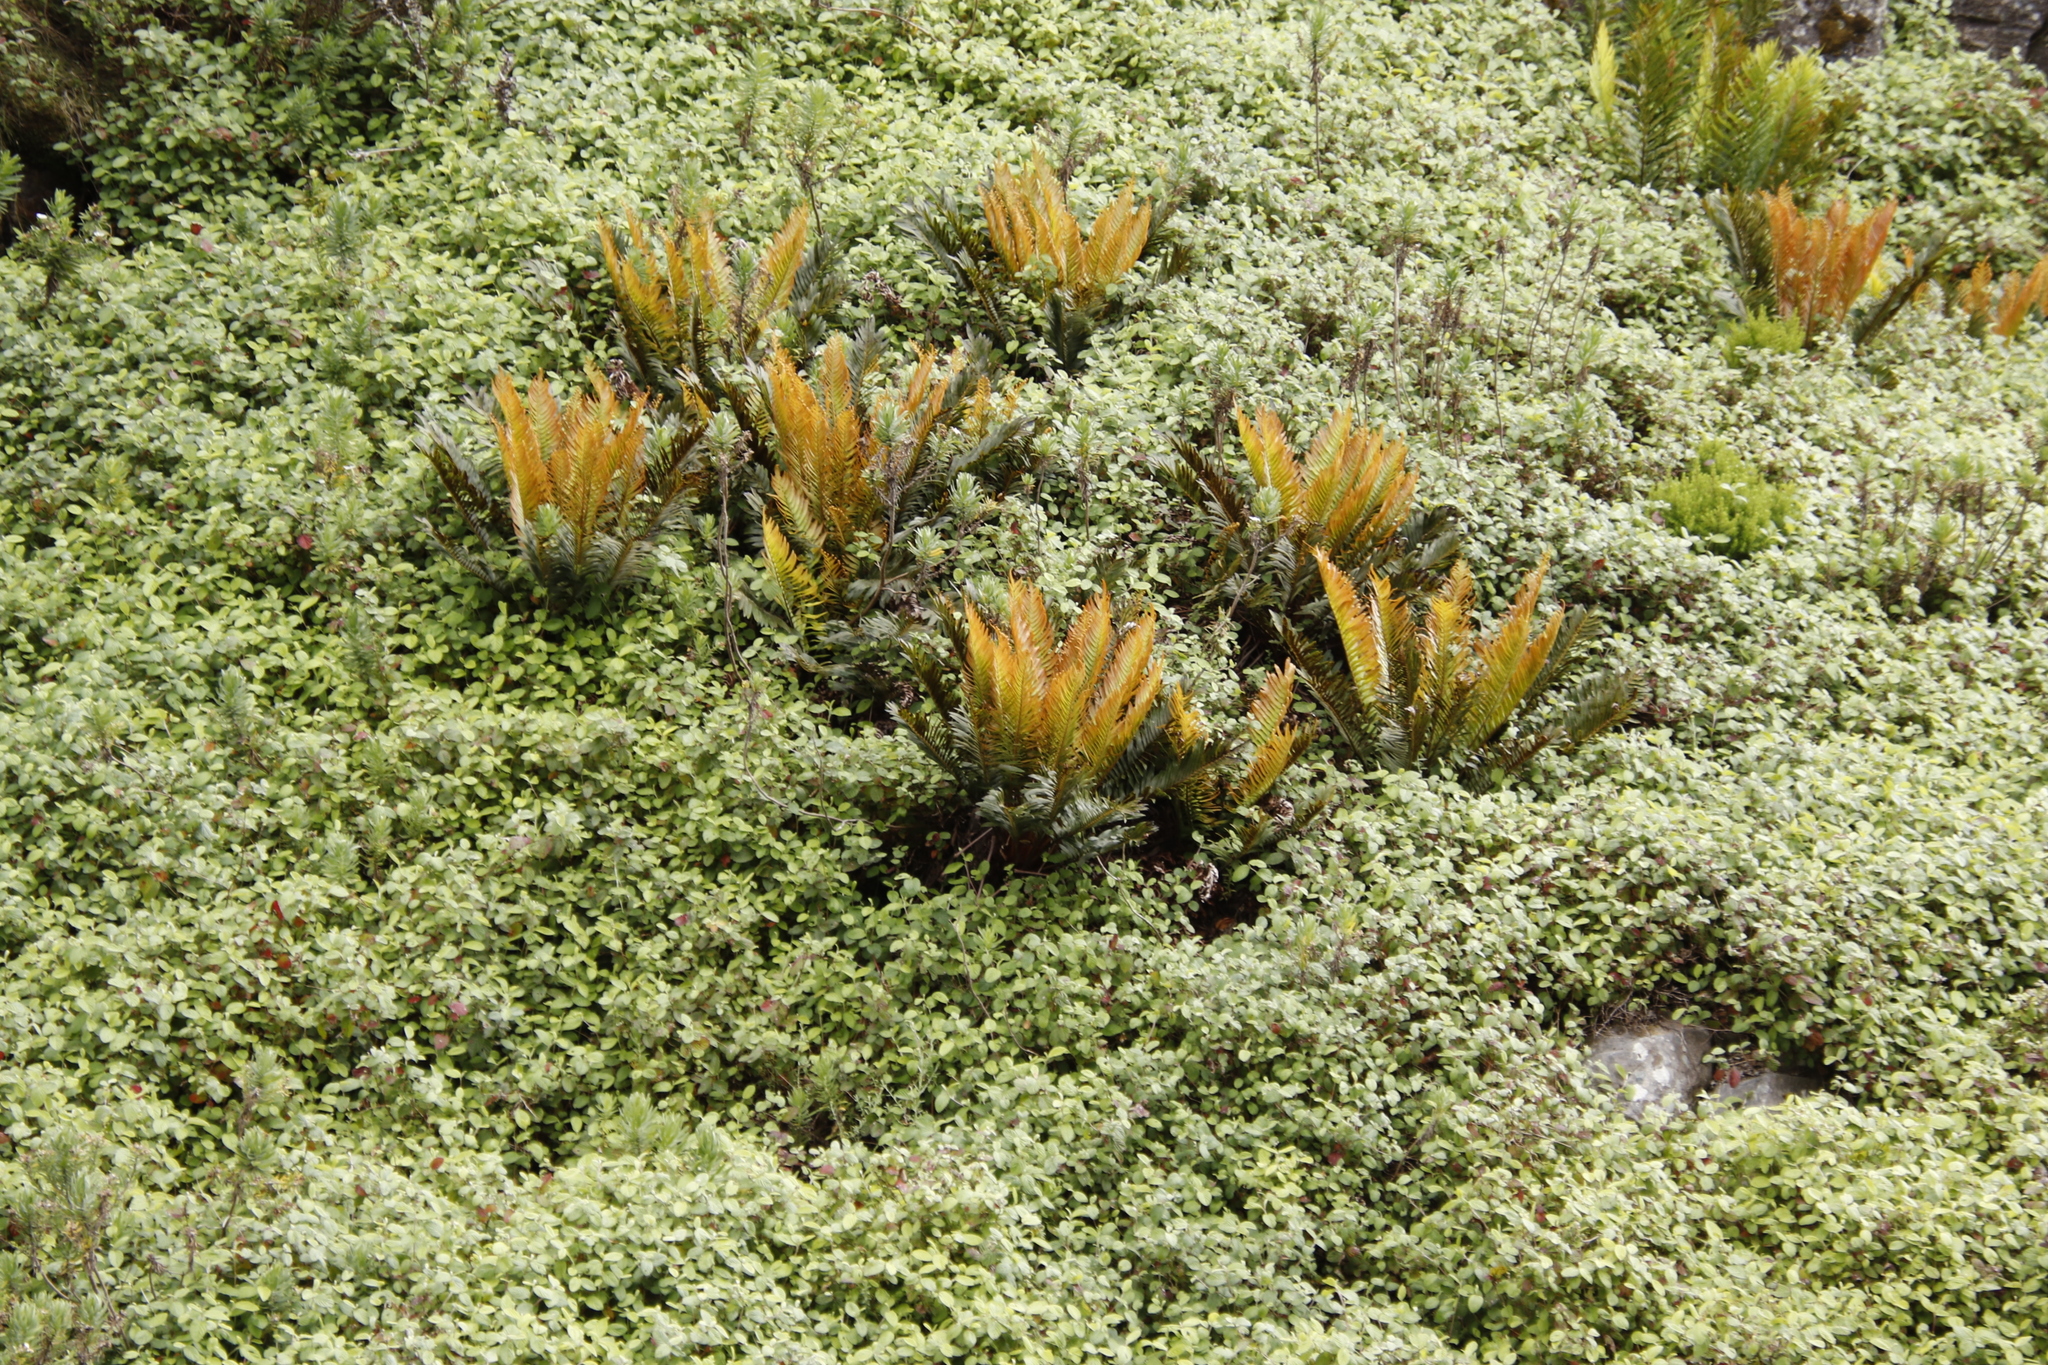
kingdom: Plantae
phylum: Tracheophyta
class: Polypodiopsida
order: Polypodiales
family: Blechnaceae
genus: Lomariocycas
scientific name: Lomariocycas tabularis
